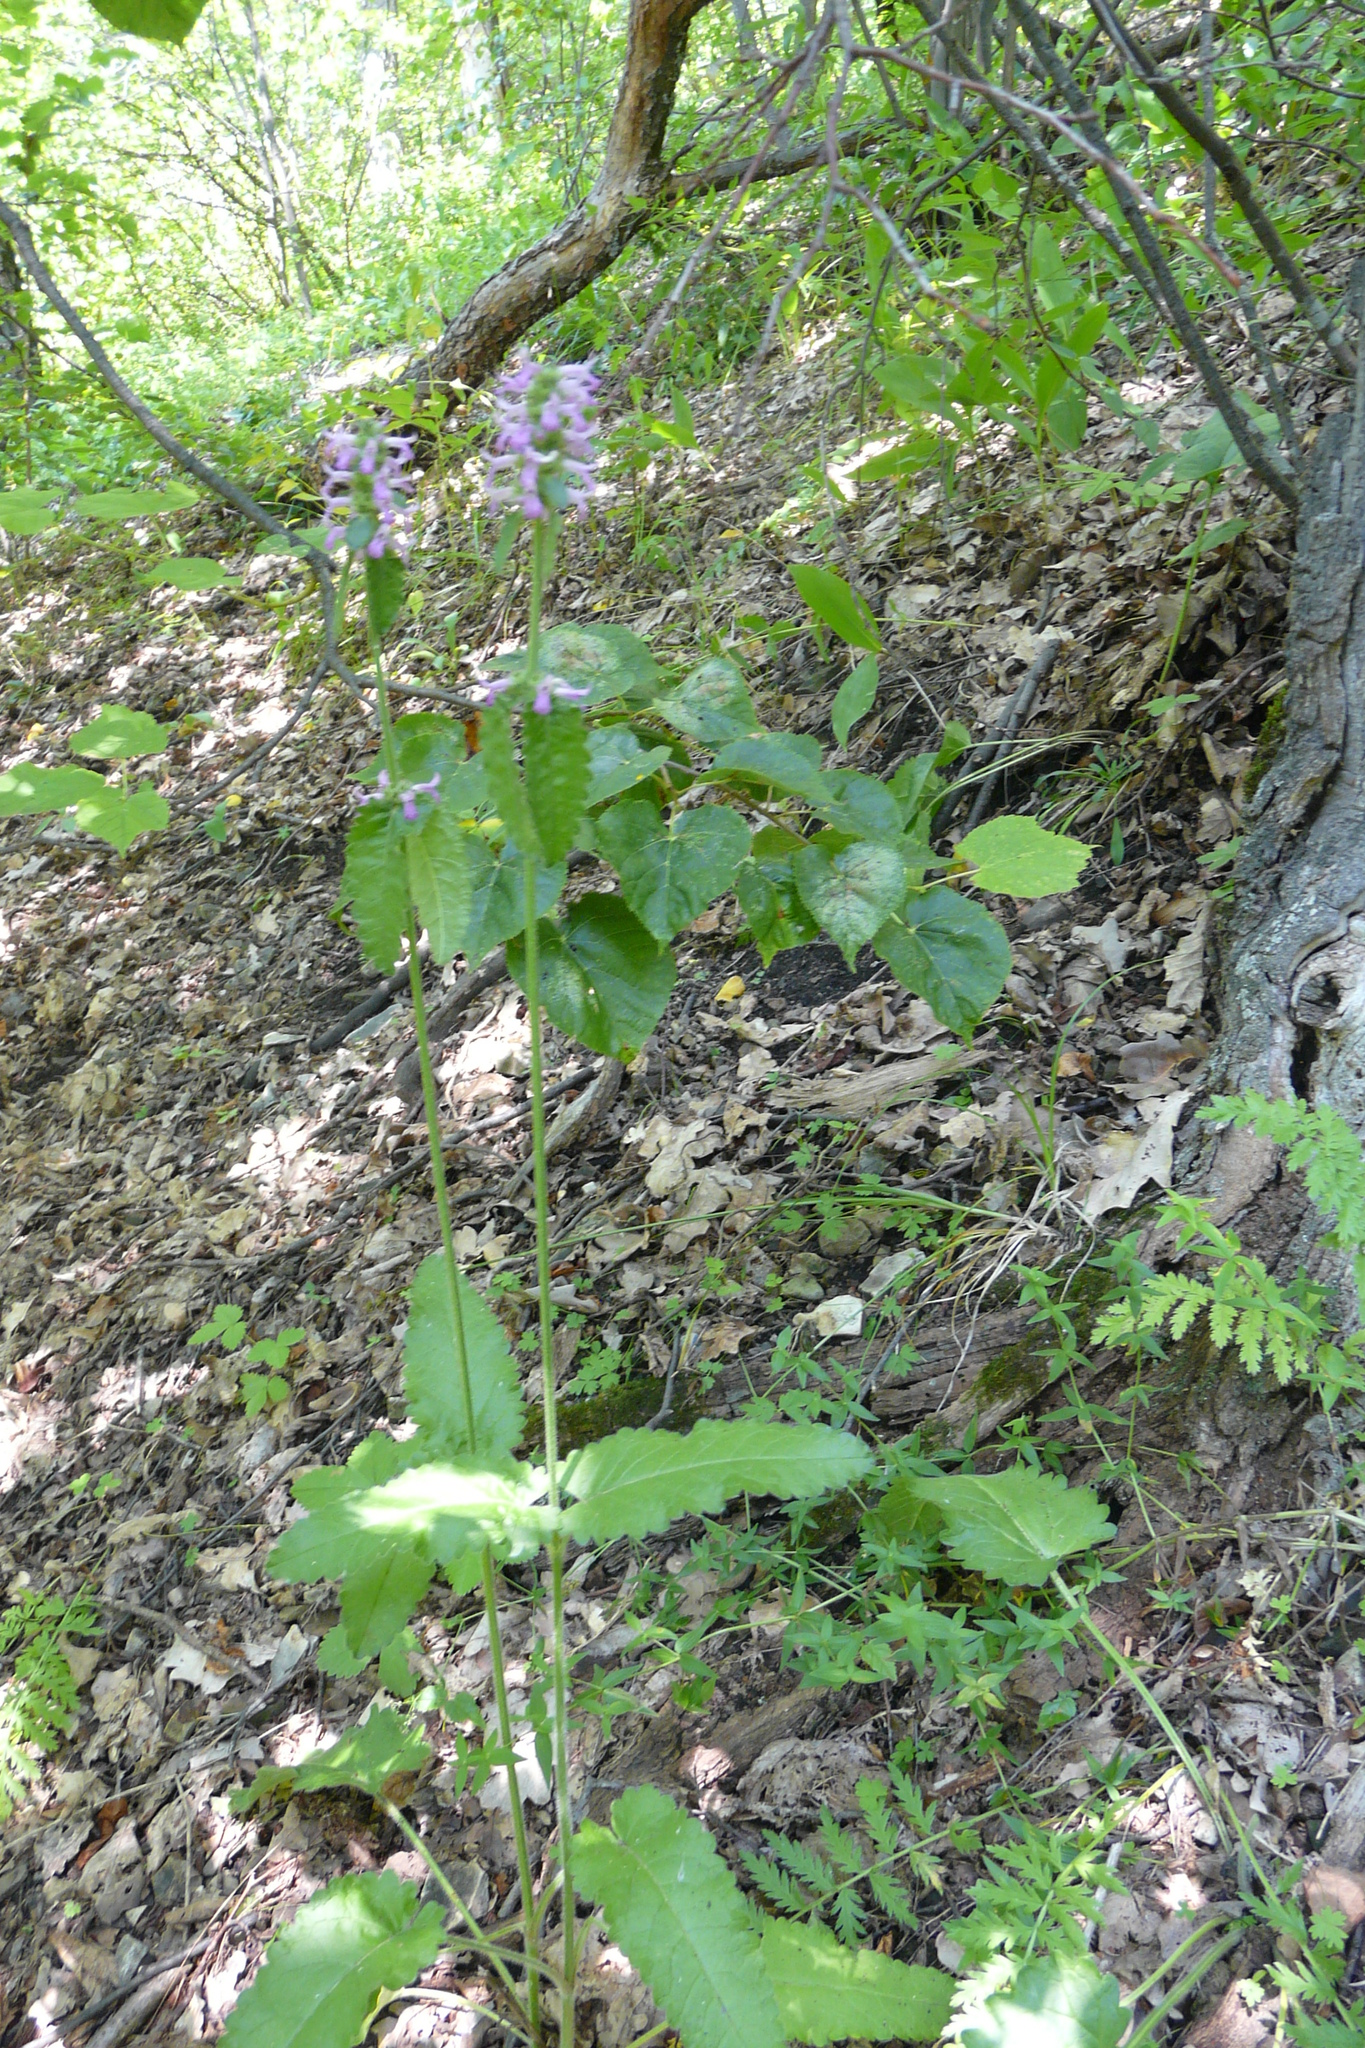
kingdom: Plantae
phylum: Tracheophyta
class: Magnoliopsida
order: Lamiales
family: Lamiaceae
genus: Betonica
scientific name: Betonica officinalis
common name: Bishop's-wort
